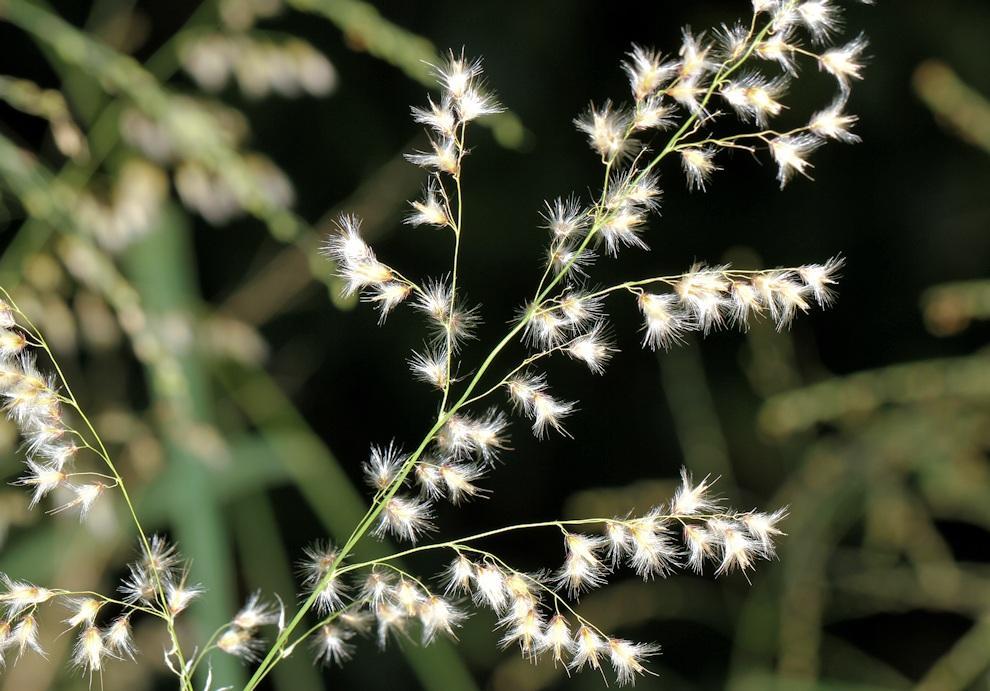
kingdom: Plantae
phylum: Tracheophyta
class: Liliopsida
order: Poales
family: Poaceae
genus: Melinis
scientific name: Melinis repens
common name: Rose natal grass
